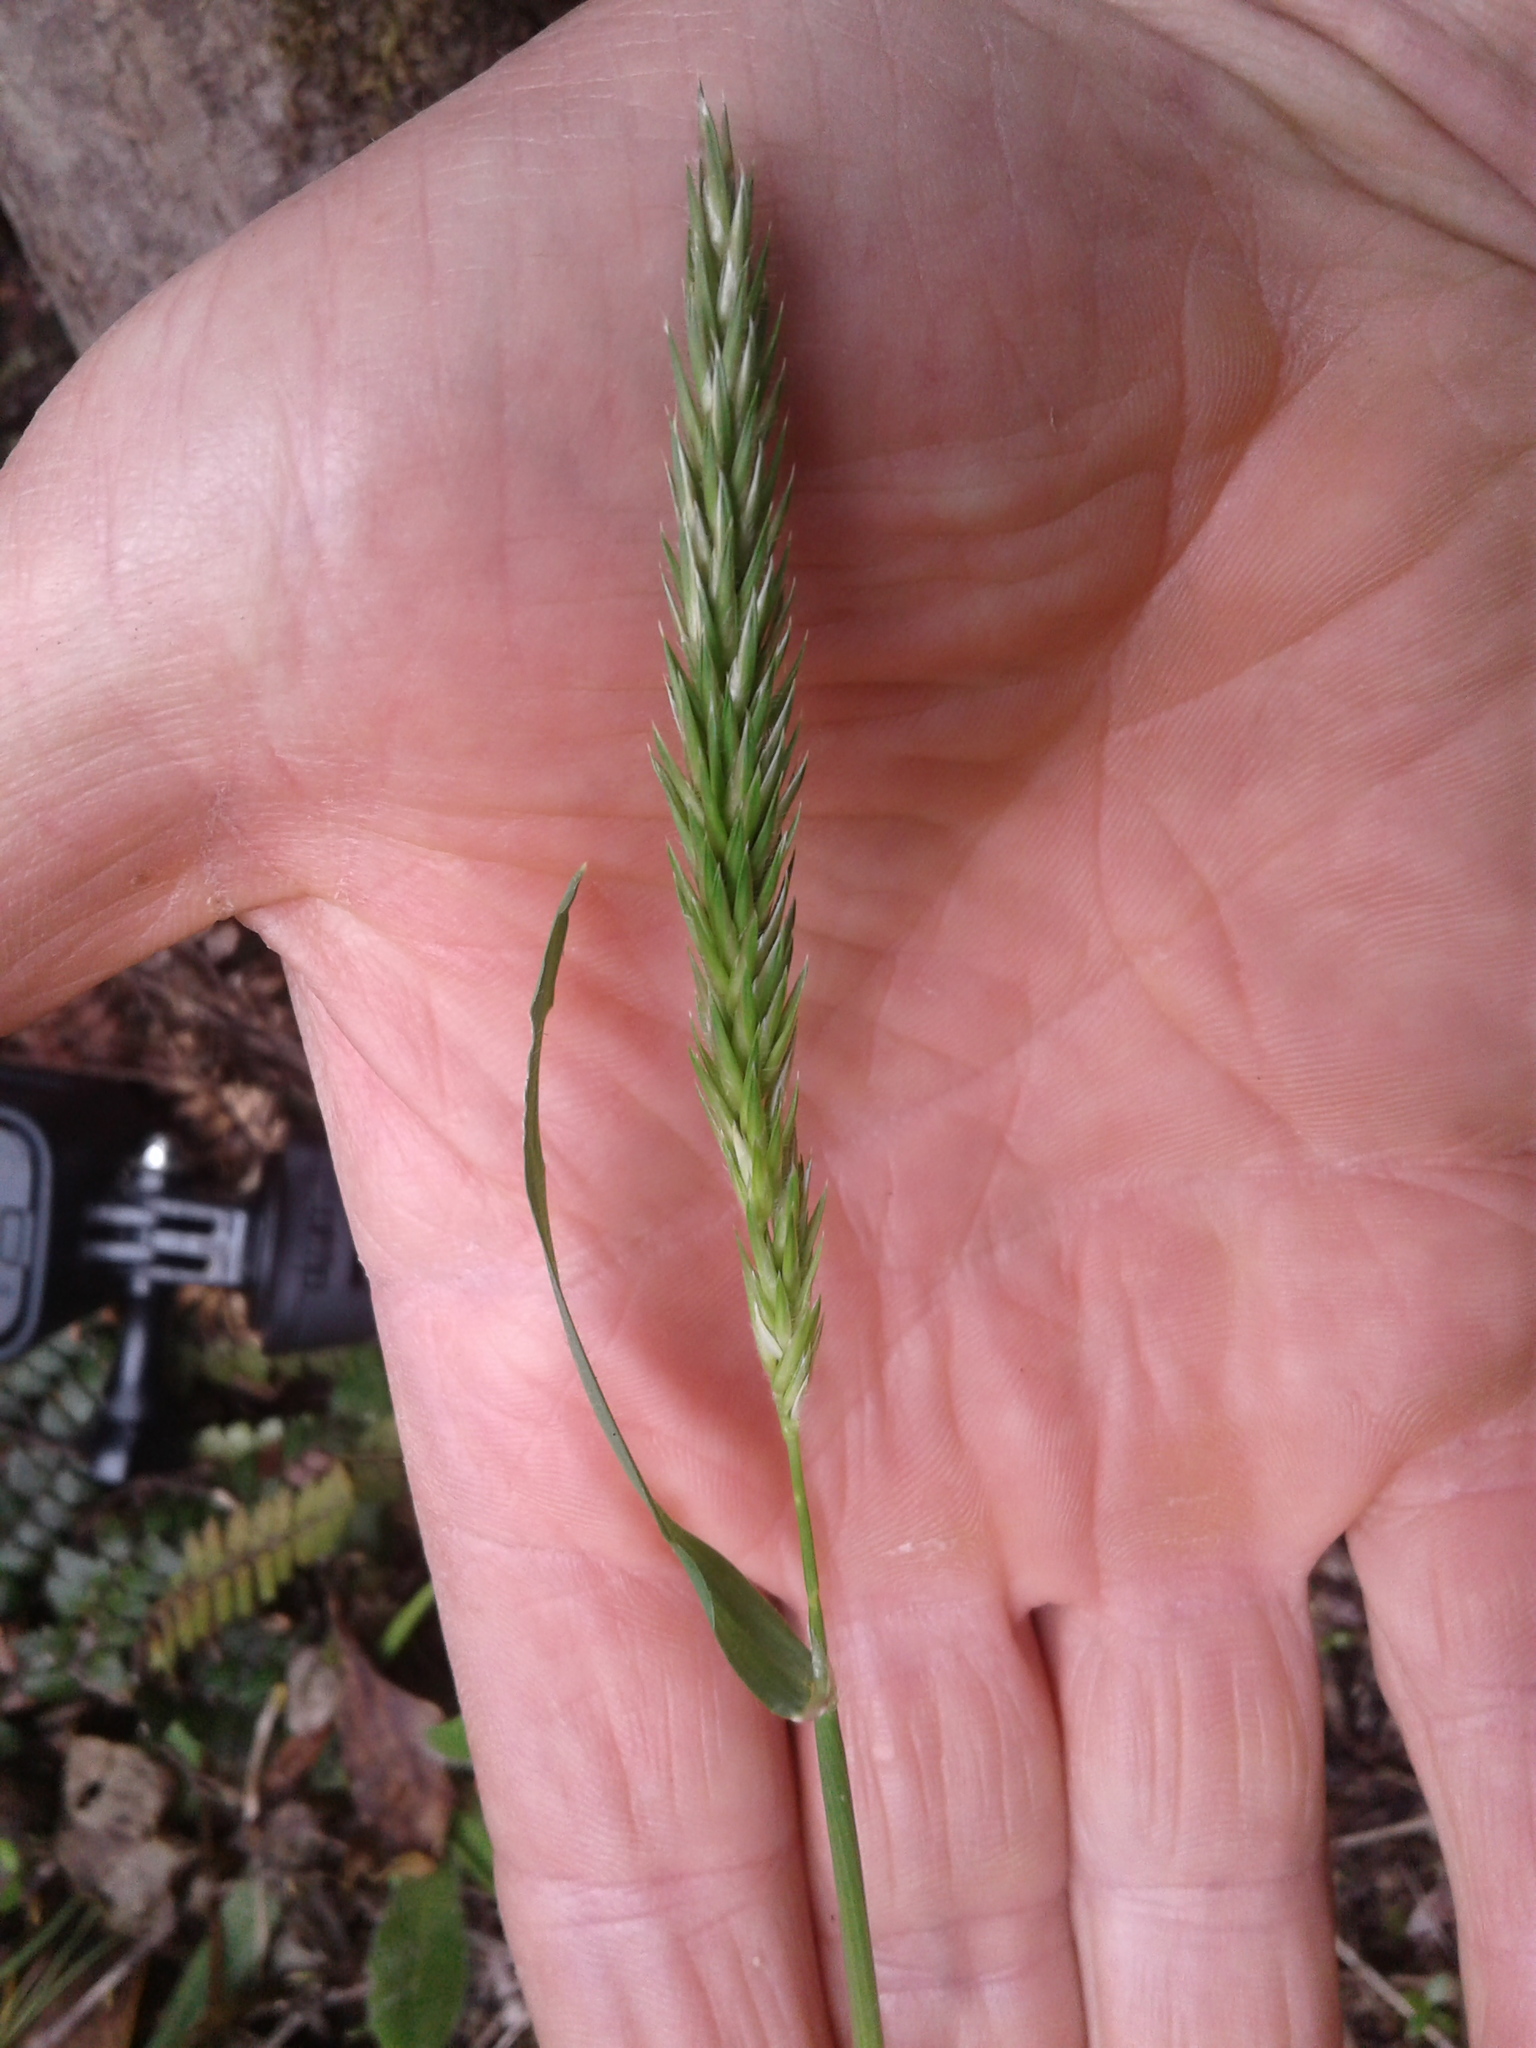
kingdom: Plantae
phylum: Tracheophyta
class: Liliopsida
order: Poales
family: Poaceae
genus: Anthoxanthum
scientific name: Anthoxanthum odoratum
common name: Sweet vernalgrass
